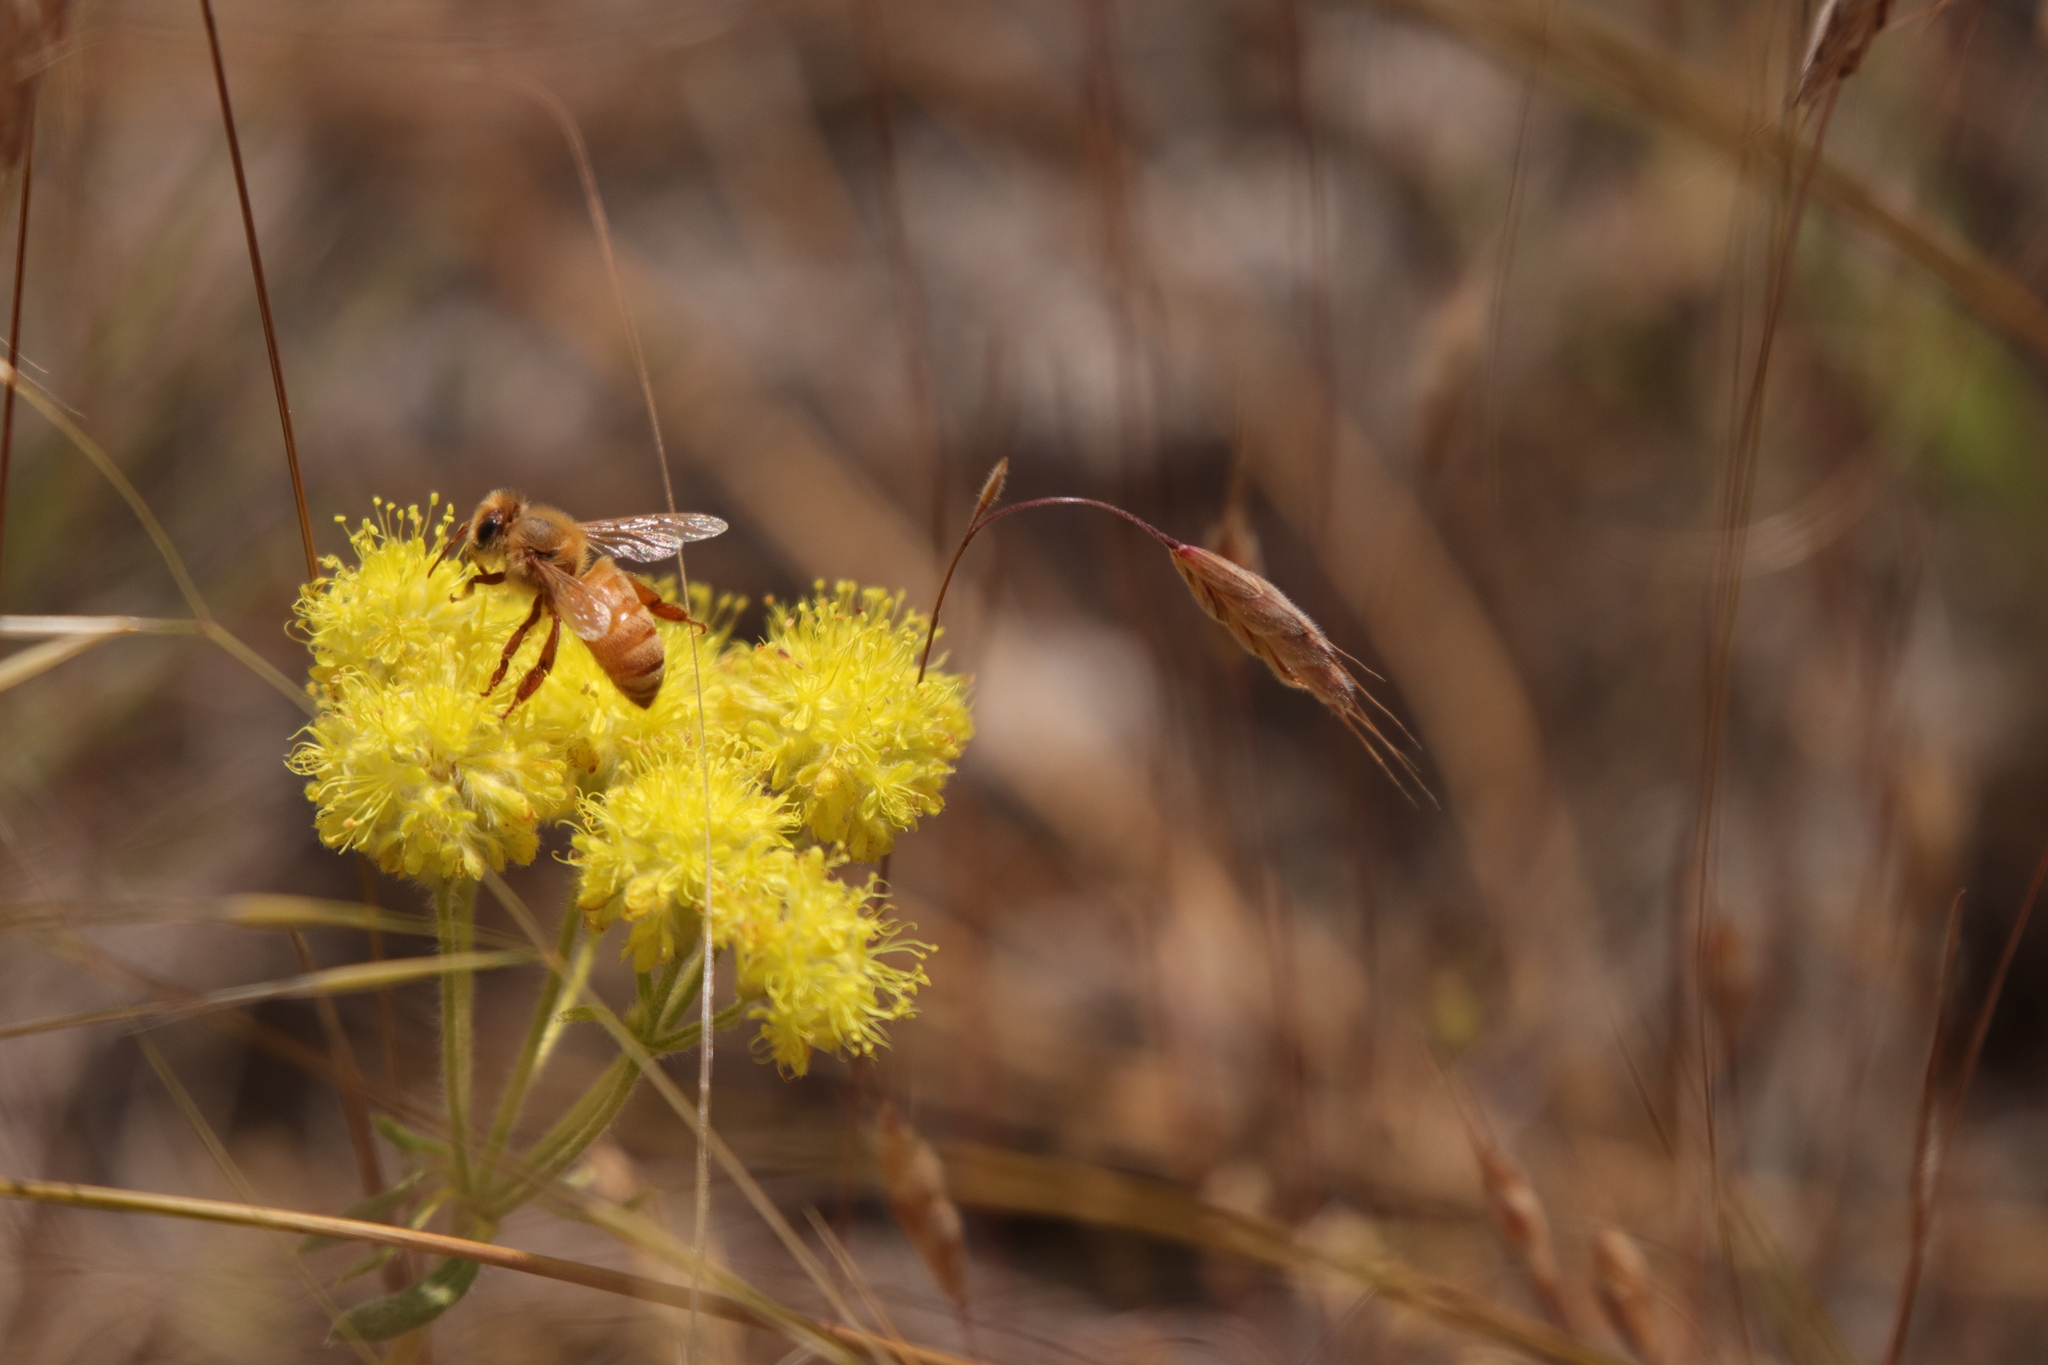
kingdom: Animalia
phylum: Arthropoda
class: Insecta
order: Hymenoptera
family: Apidae
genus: Apis
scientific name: Apis mellifera
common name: Honey bee
